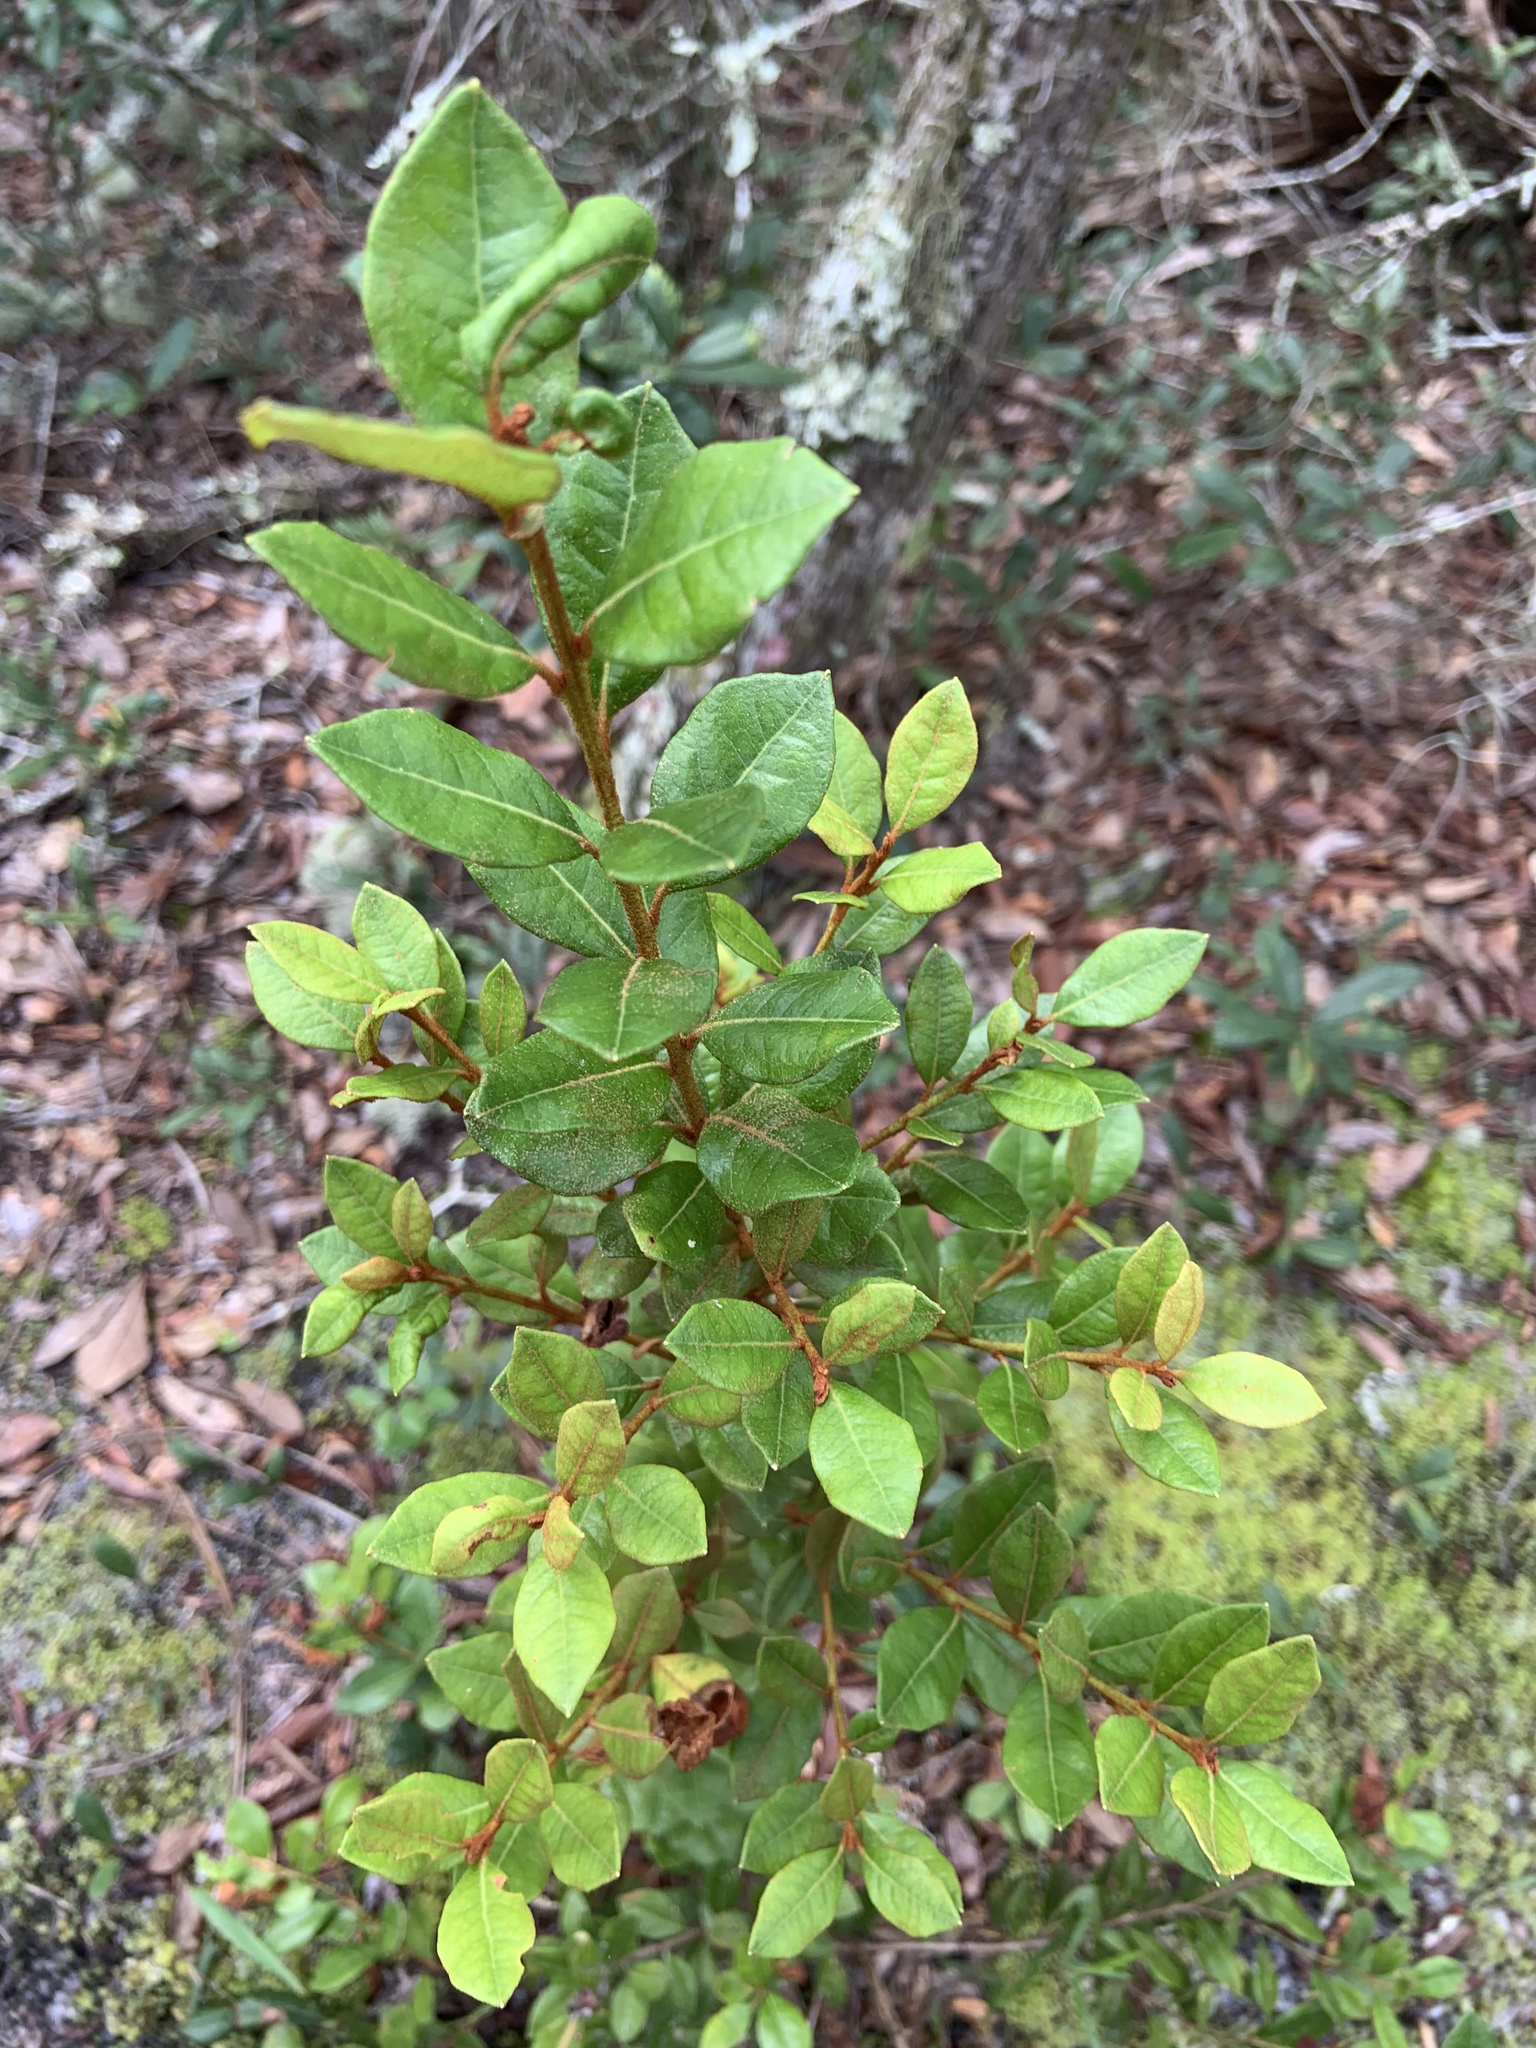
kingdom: Plantae
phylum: Tracheophyta
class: Magnoliopsida
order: Ericales
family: Ericaceae
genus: Lyonia
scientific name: Lyonia ferruginea
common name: Rusty lyonia
